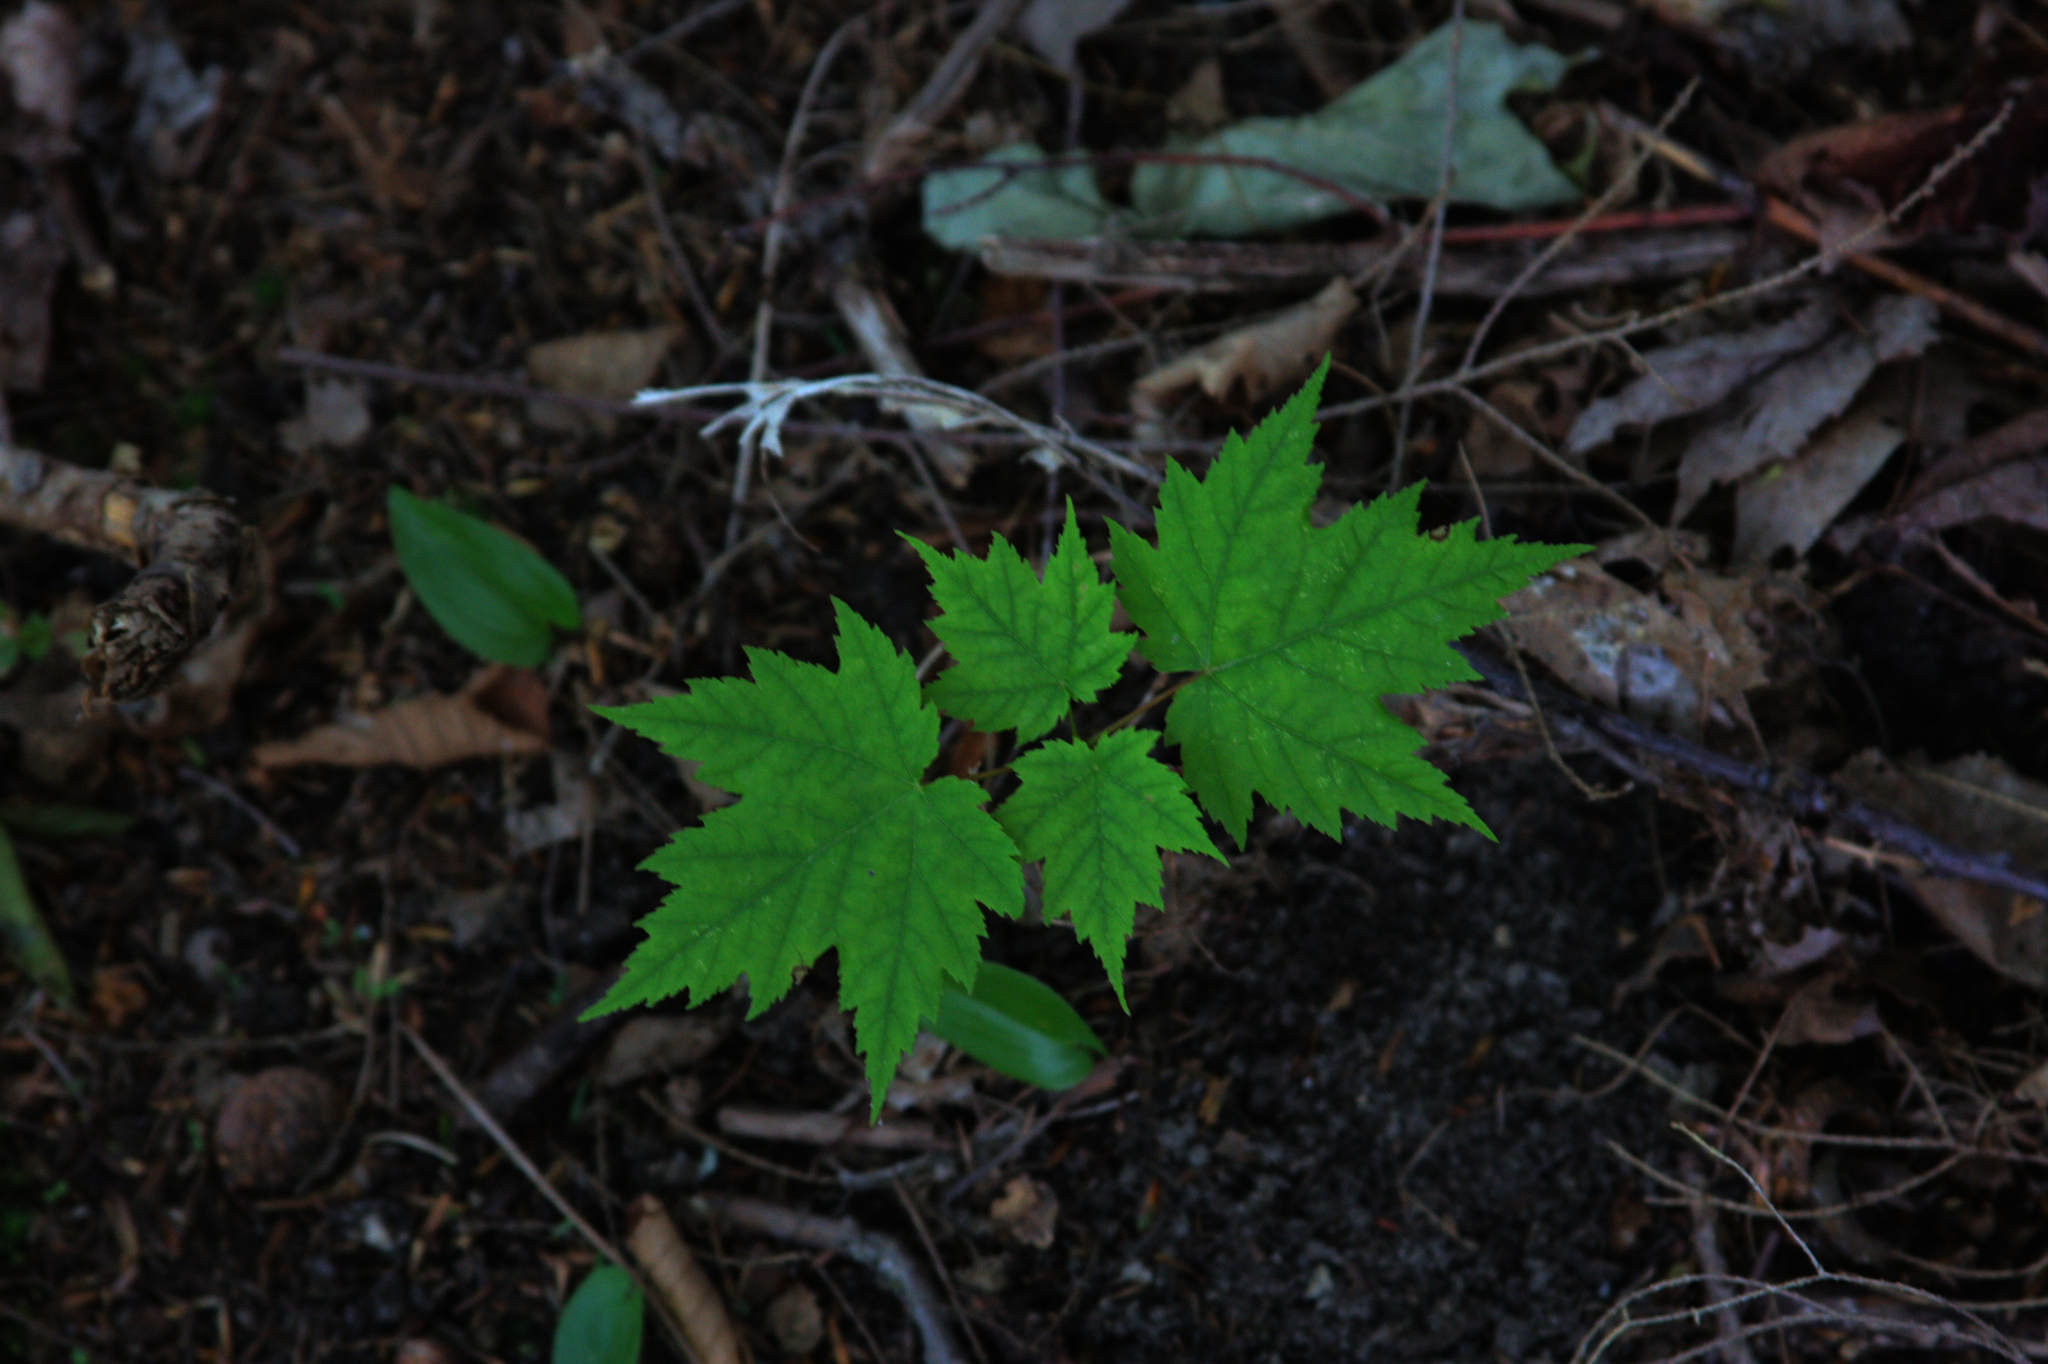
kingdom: Plantae
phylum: Tracheophyta
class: Magnoliopsida
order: Sapindales
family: Sapindaceae
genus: Acer
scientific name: Acer rubrum
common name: Red maple
